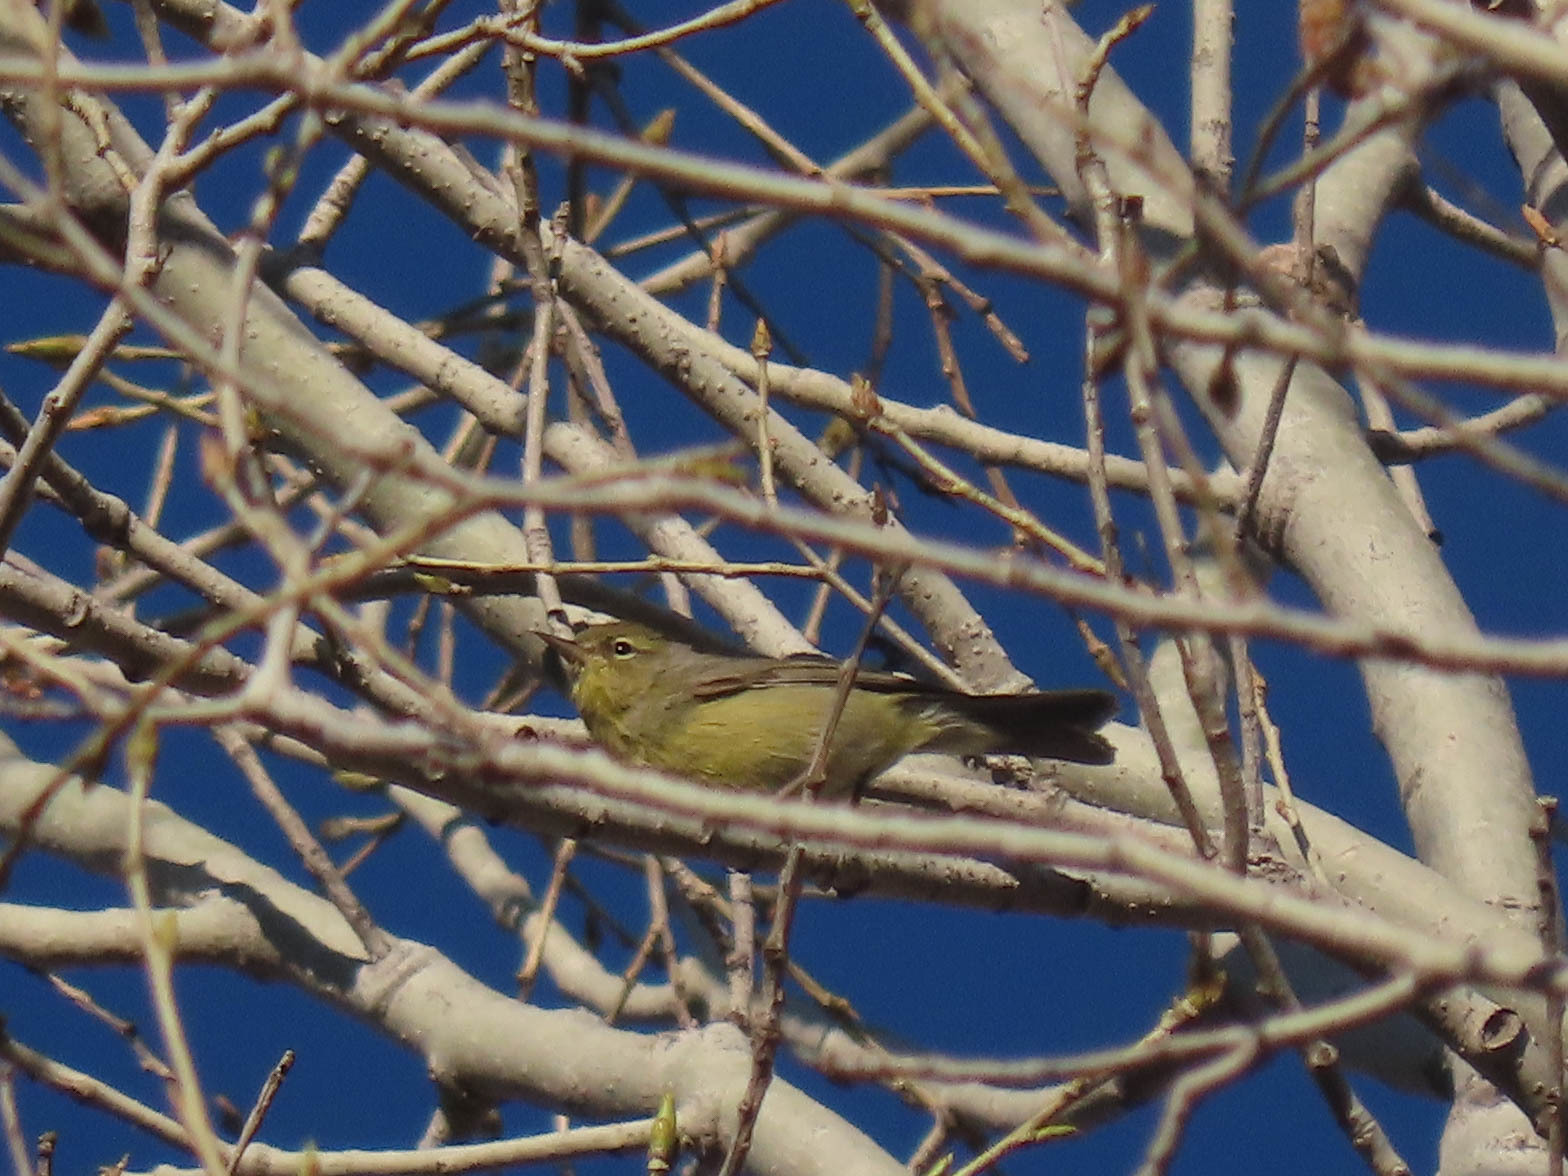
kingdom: Animalia
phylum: Chordata
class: Aves
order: Passeriformes
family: Parulidae
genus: Leiothlypis
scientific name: Leiothlypis celata
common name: Orange-crowned warbler
